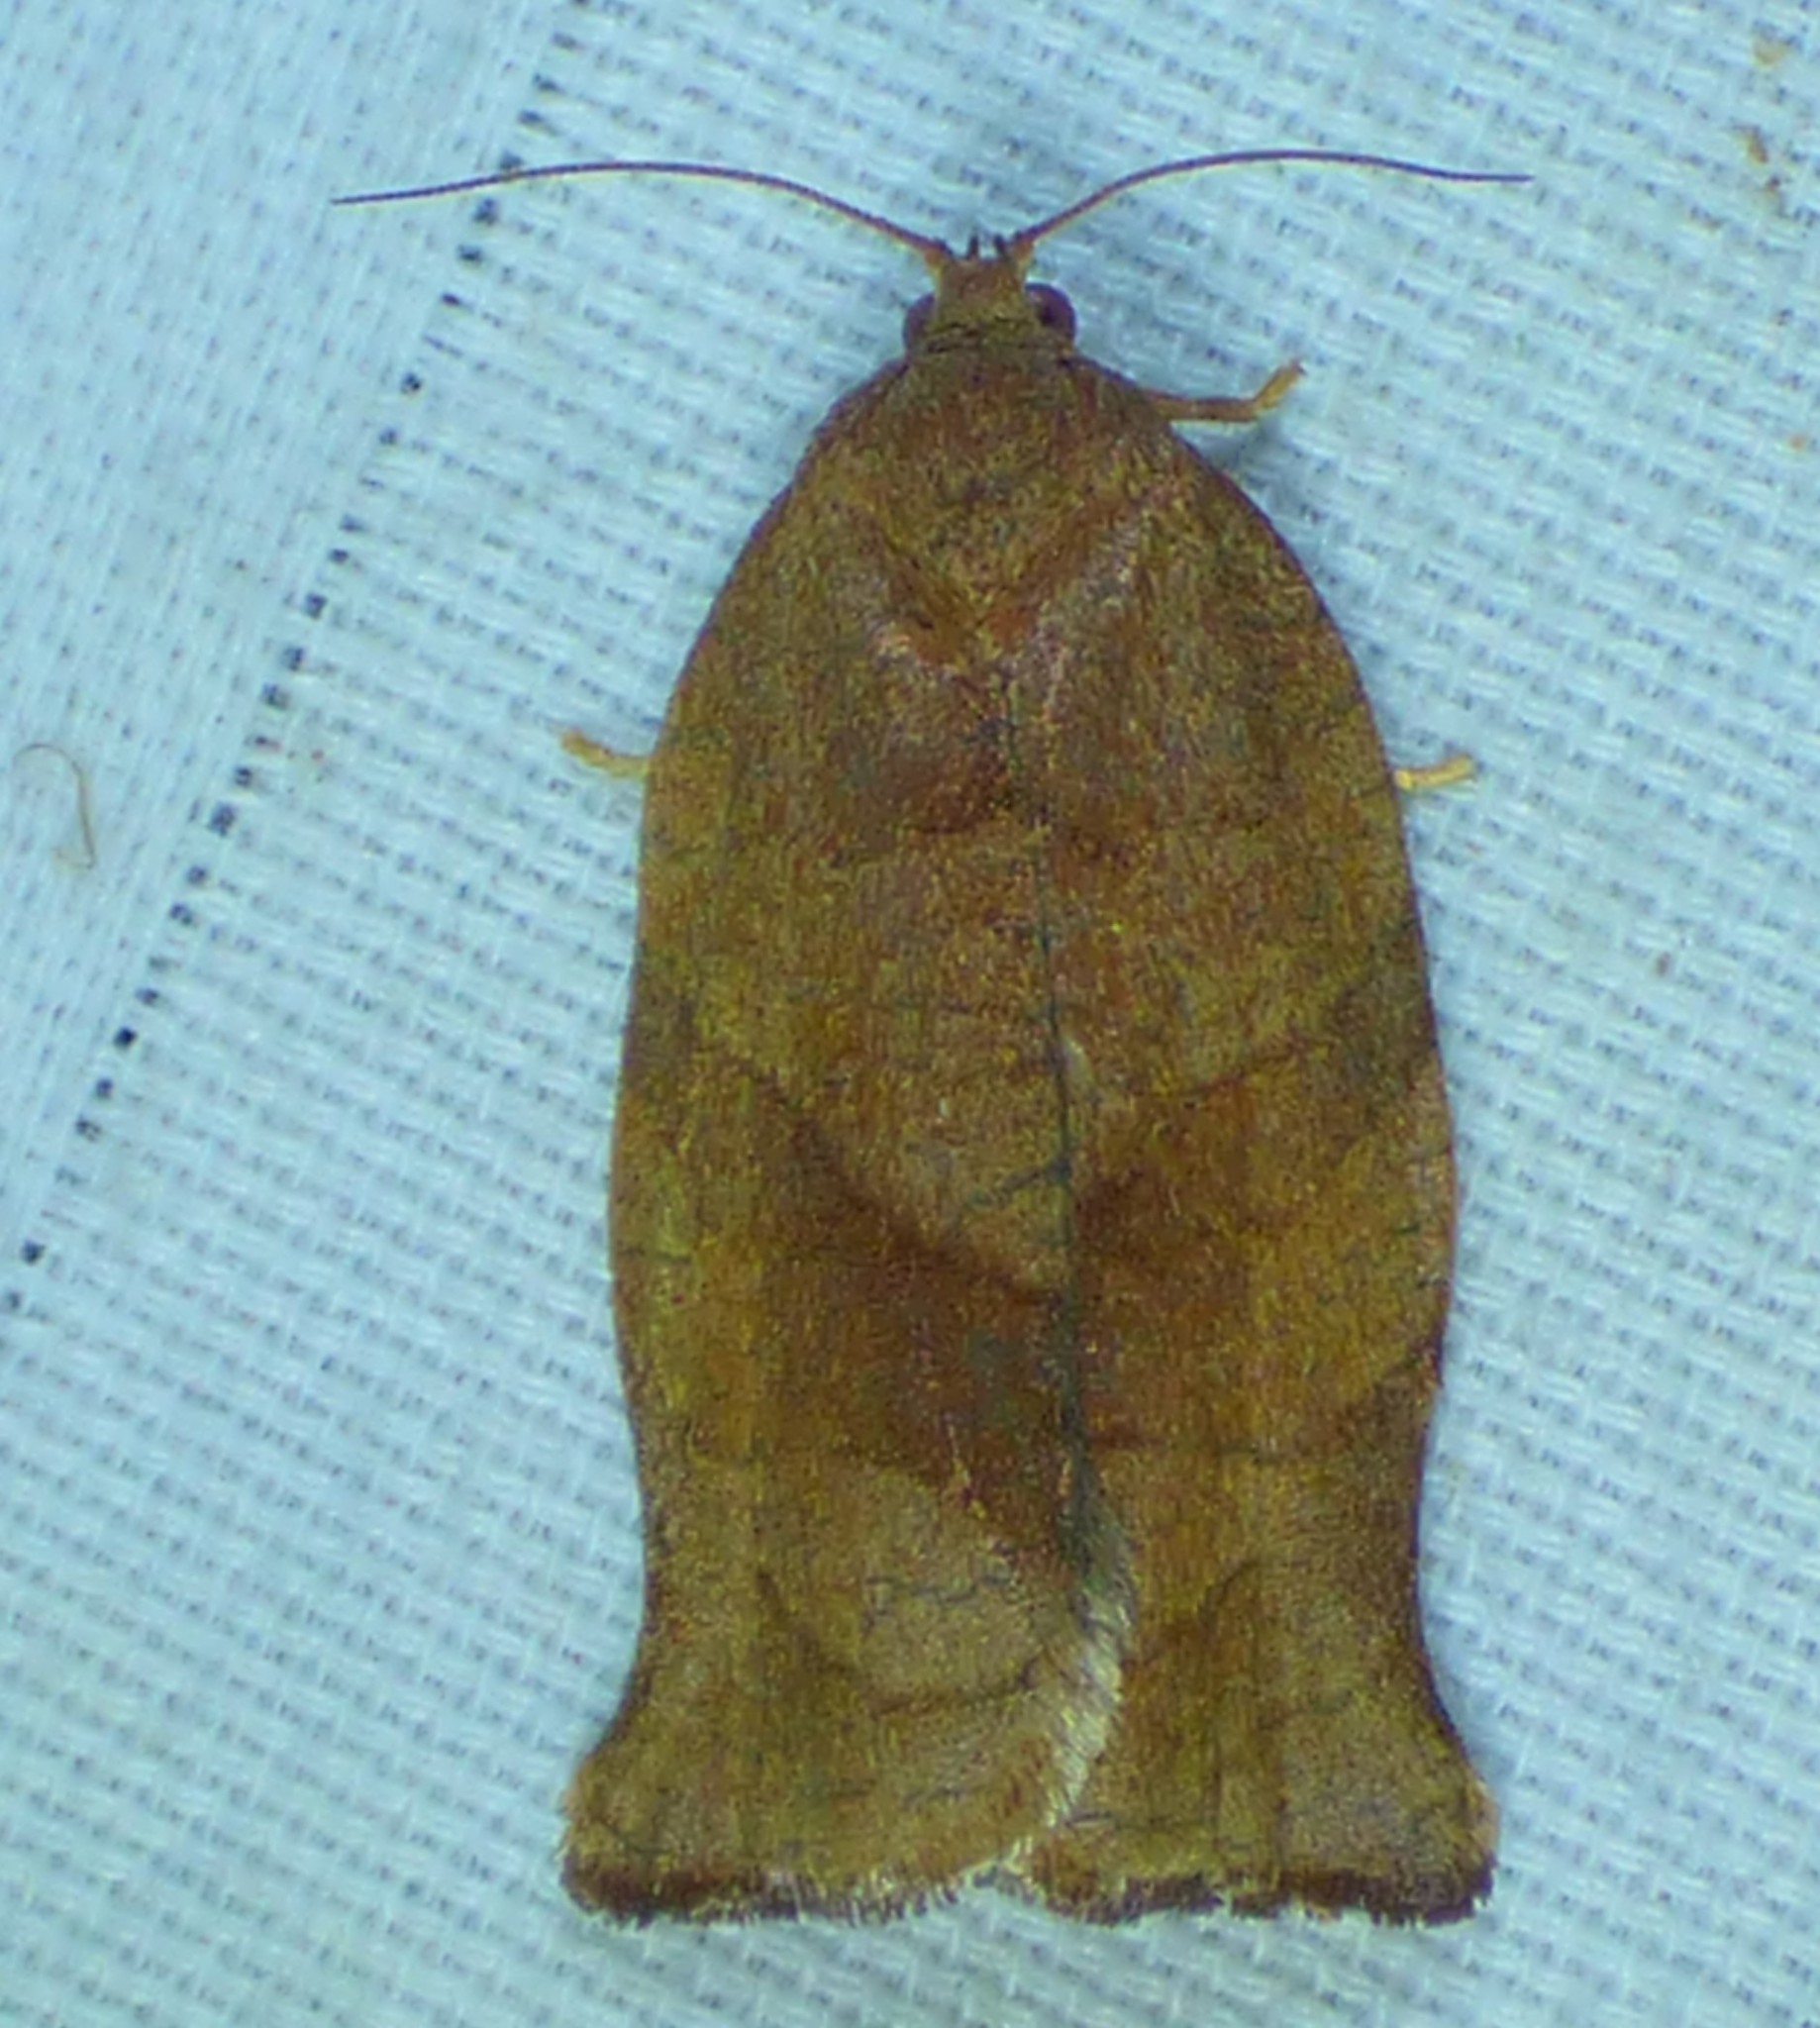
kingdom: Animalia
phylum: Arthropoda
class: Insecta
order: Lepidoptera
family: Tortricidae
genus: Choristoneura
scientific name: Choristoneura rosaceana
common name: Oblique-banded leafroller moth
